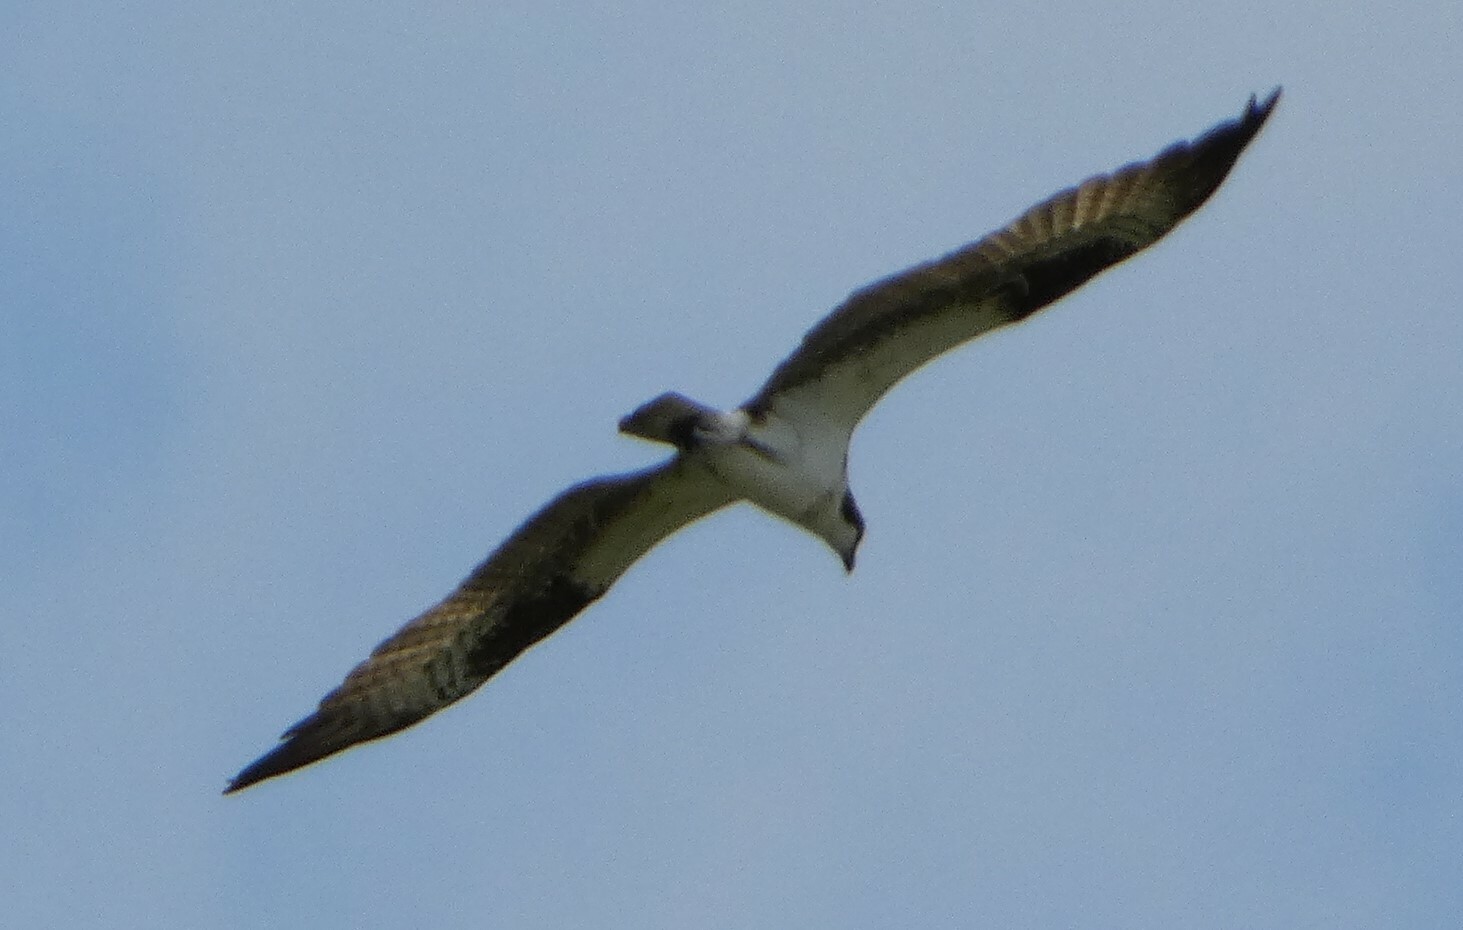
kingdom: Animalia
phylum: Chordata
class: Aves
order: Accipitriformes
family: Pandionidae
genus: Pandion
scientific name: Pandion haliaetus
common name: Osprey
